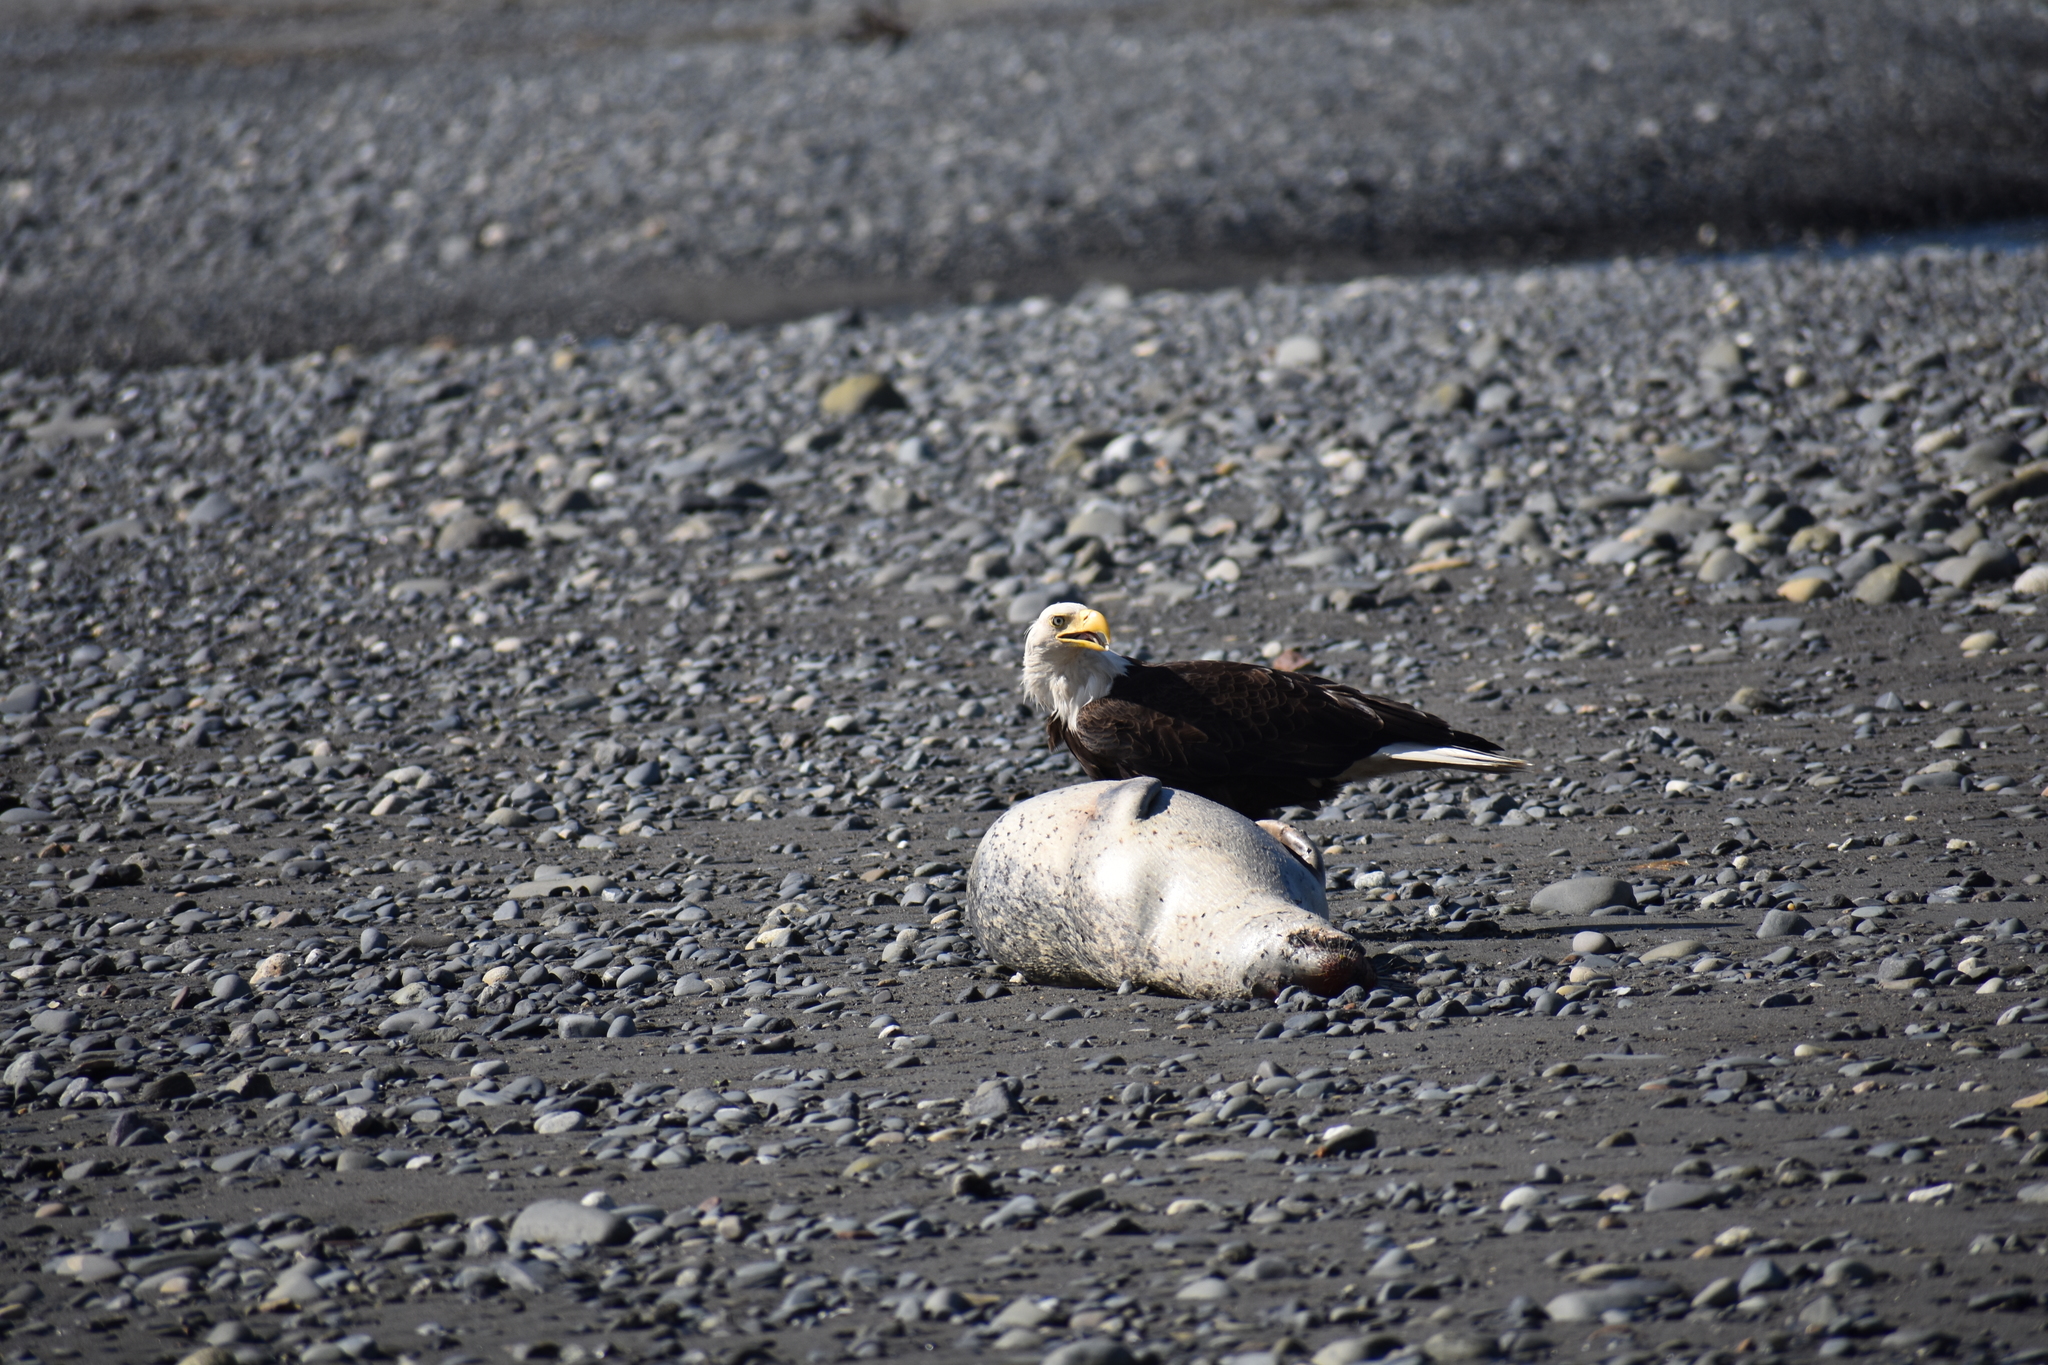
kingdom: Animalia
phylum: Chordata
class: Mammalia
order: Carnivora
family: Phocidae
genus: Phoca
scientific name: Phoca vitulina
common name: Harbor seal
